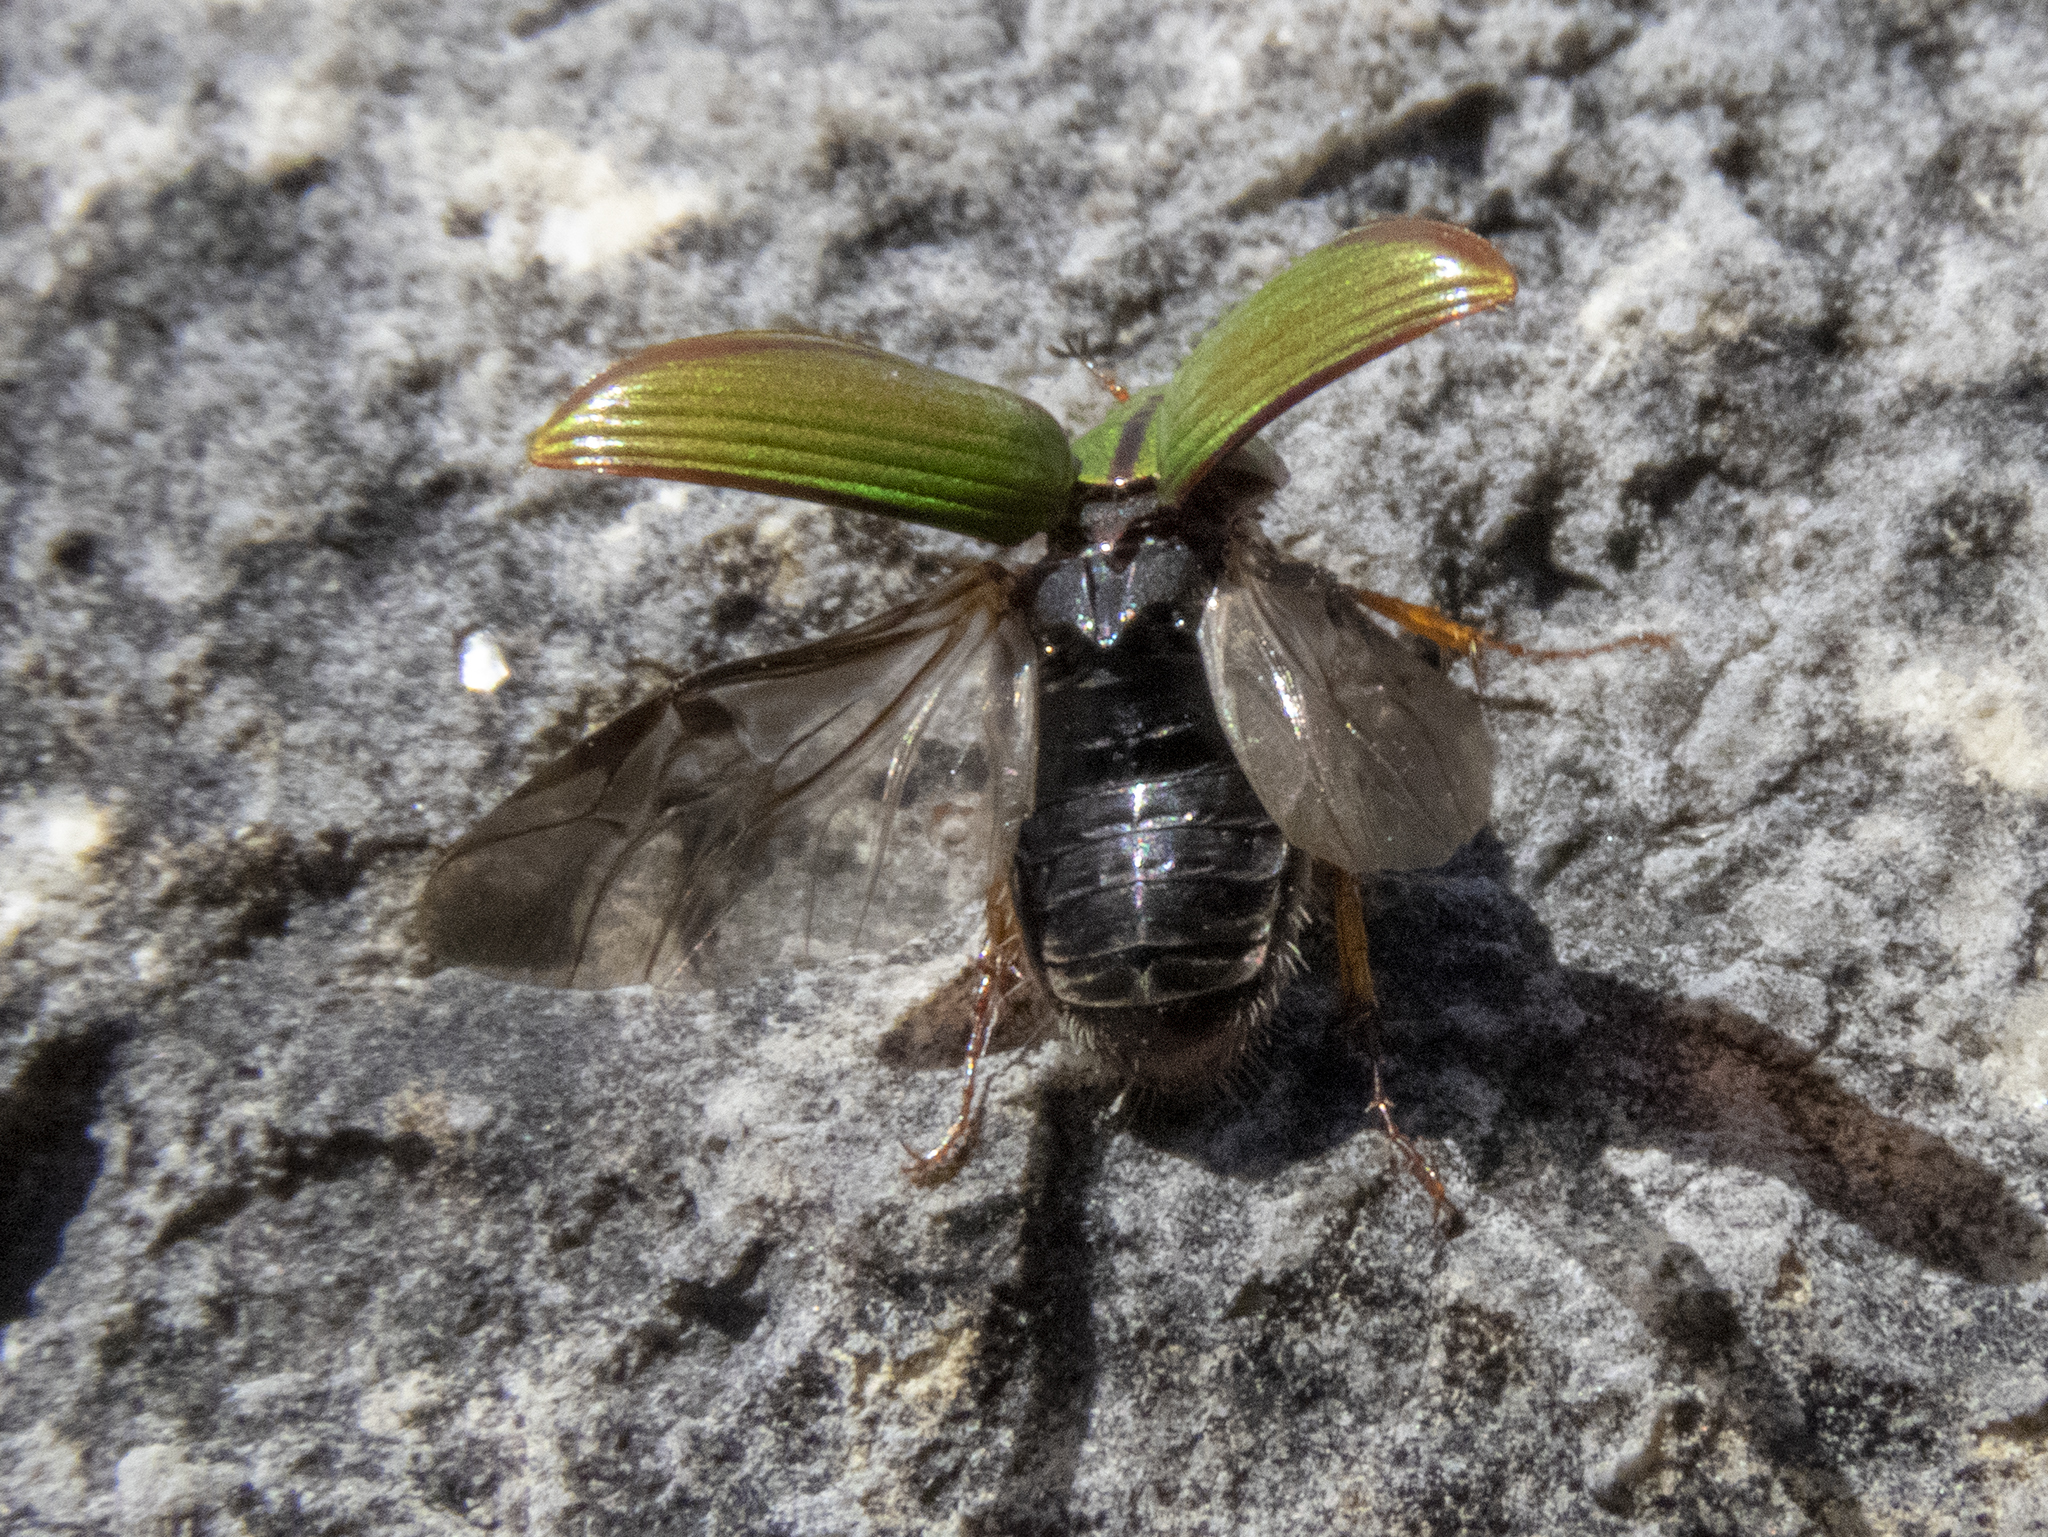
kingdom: Animalia
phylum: Arthropoda
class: Insecta
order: Coleoptera
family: Scarabaeidae
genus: Pyronota
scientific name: Pyronota festiva
